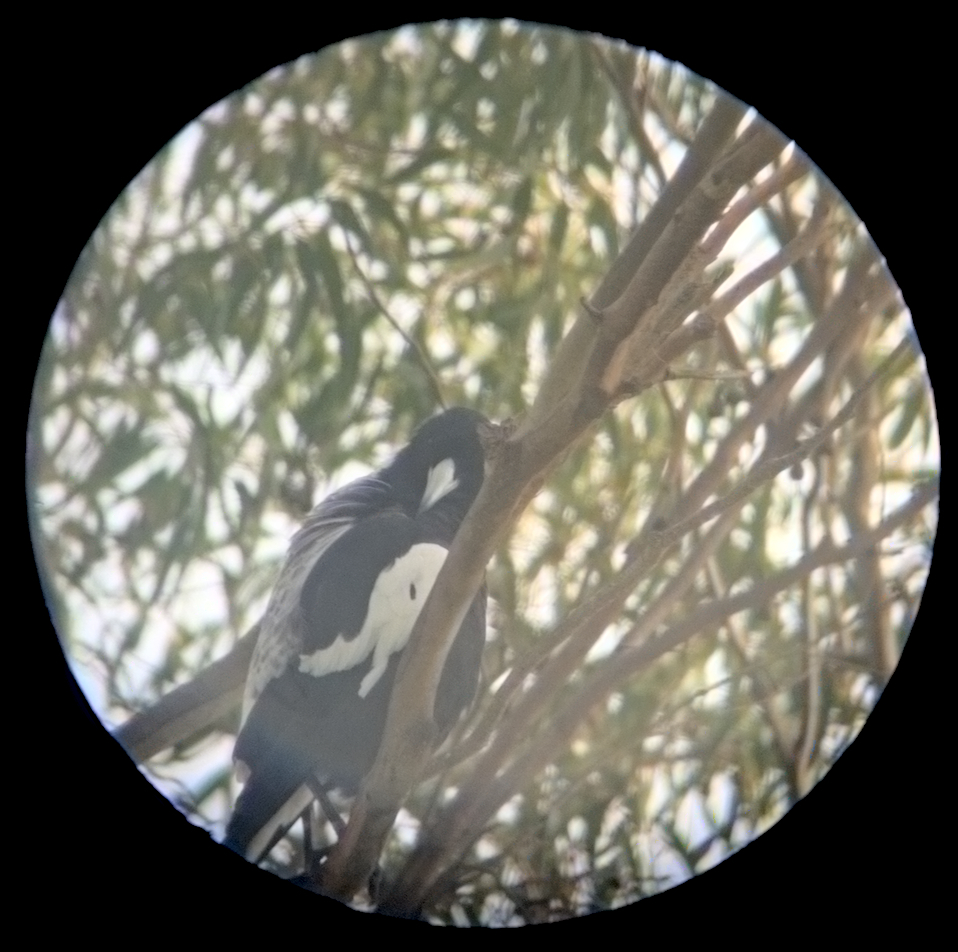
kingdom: Animalia
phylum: Chordata
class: Aves
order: Passeriformes
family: Cracticidae
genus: Gymnorhina
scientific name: Gymnorhina tibicen
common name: Australian magpie
